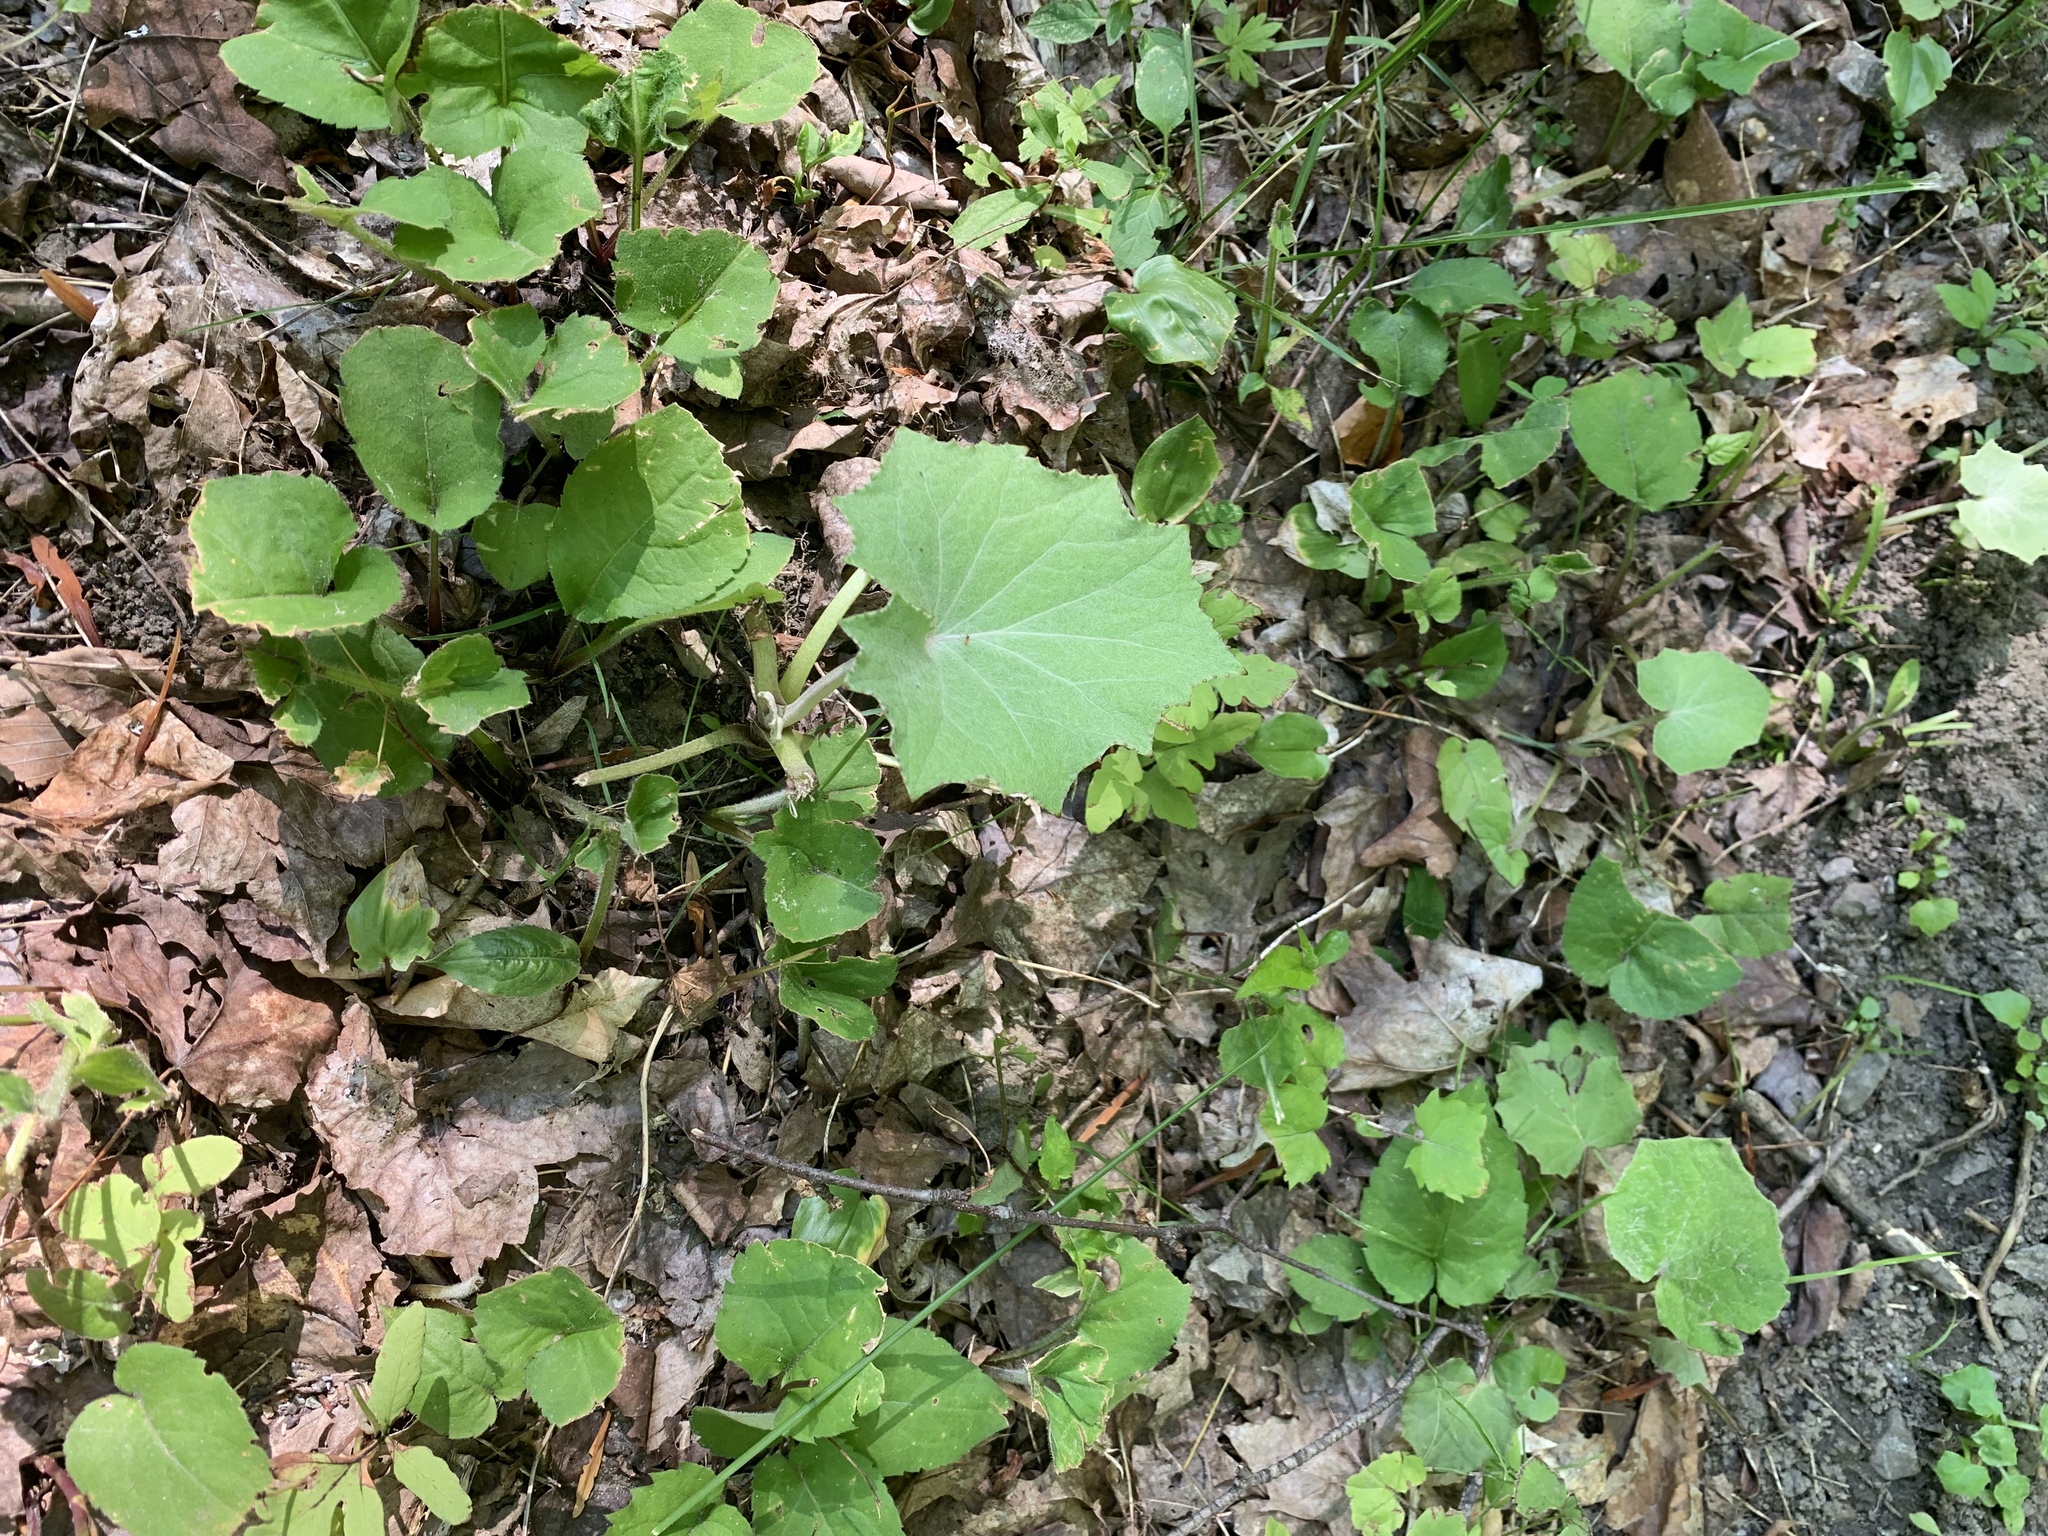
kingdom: Plantae
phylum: Tracheophyta
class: Magnoliopsida
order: Asterales
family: Asteraceae
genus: Tussilago
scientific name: Tussilago farfara
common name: Coltsfoot
